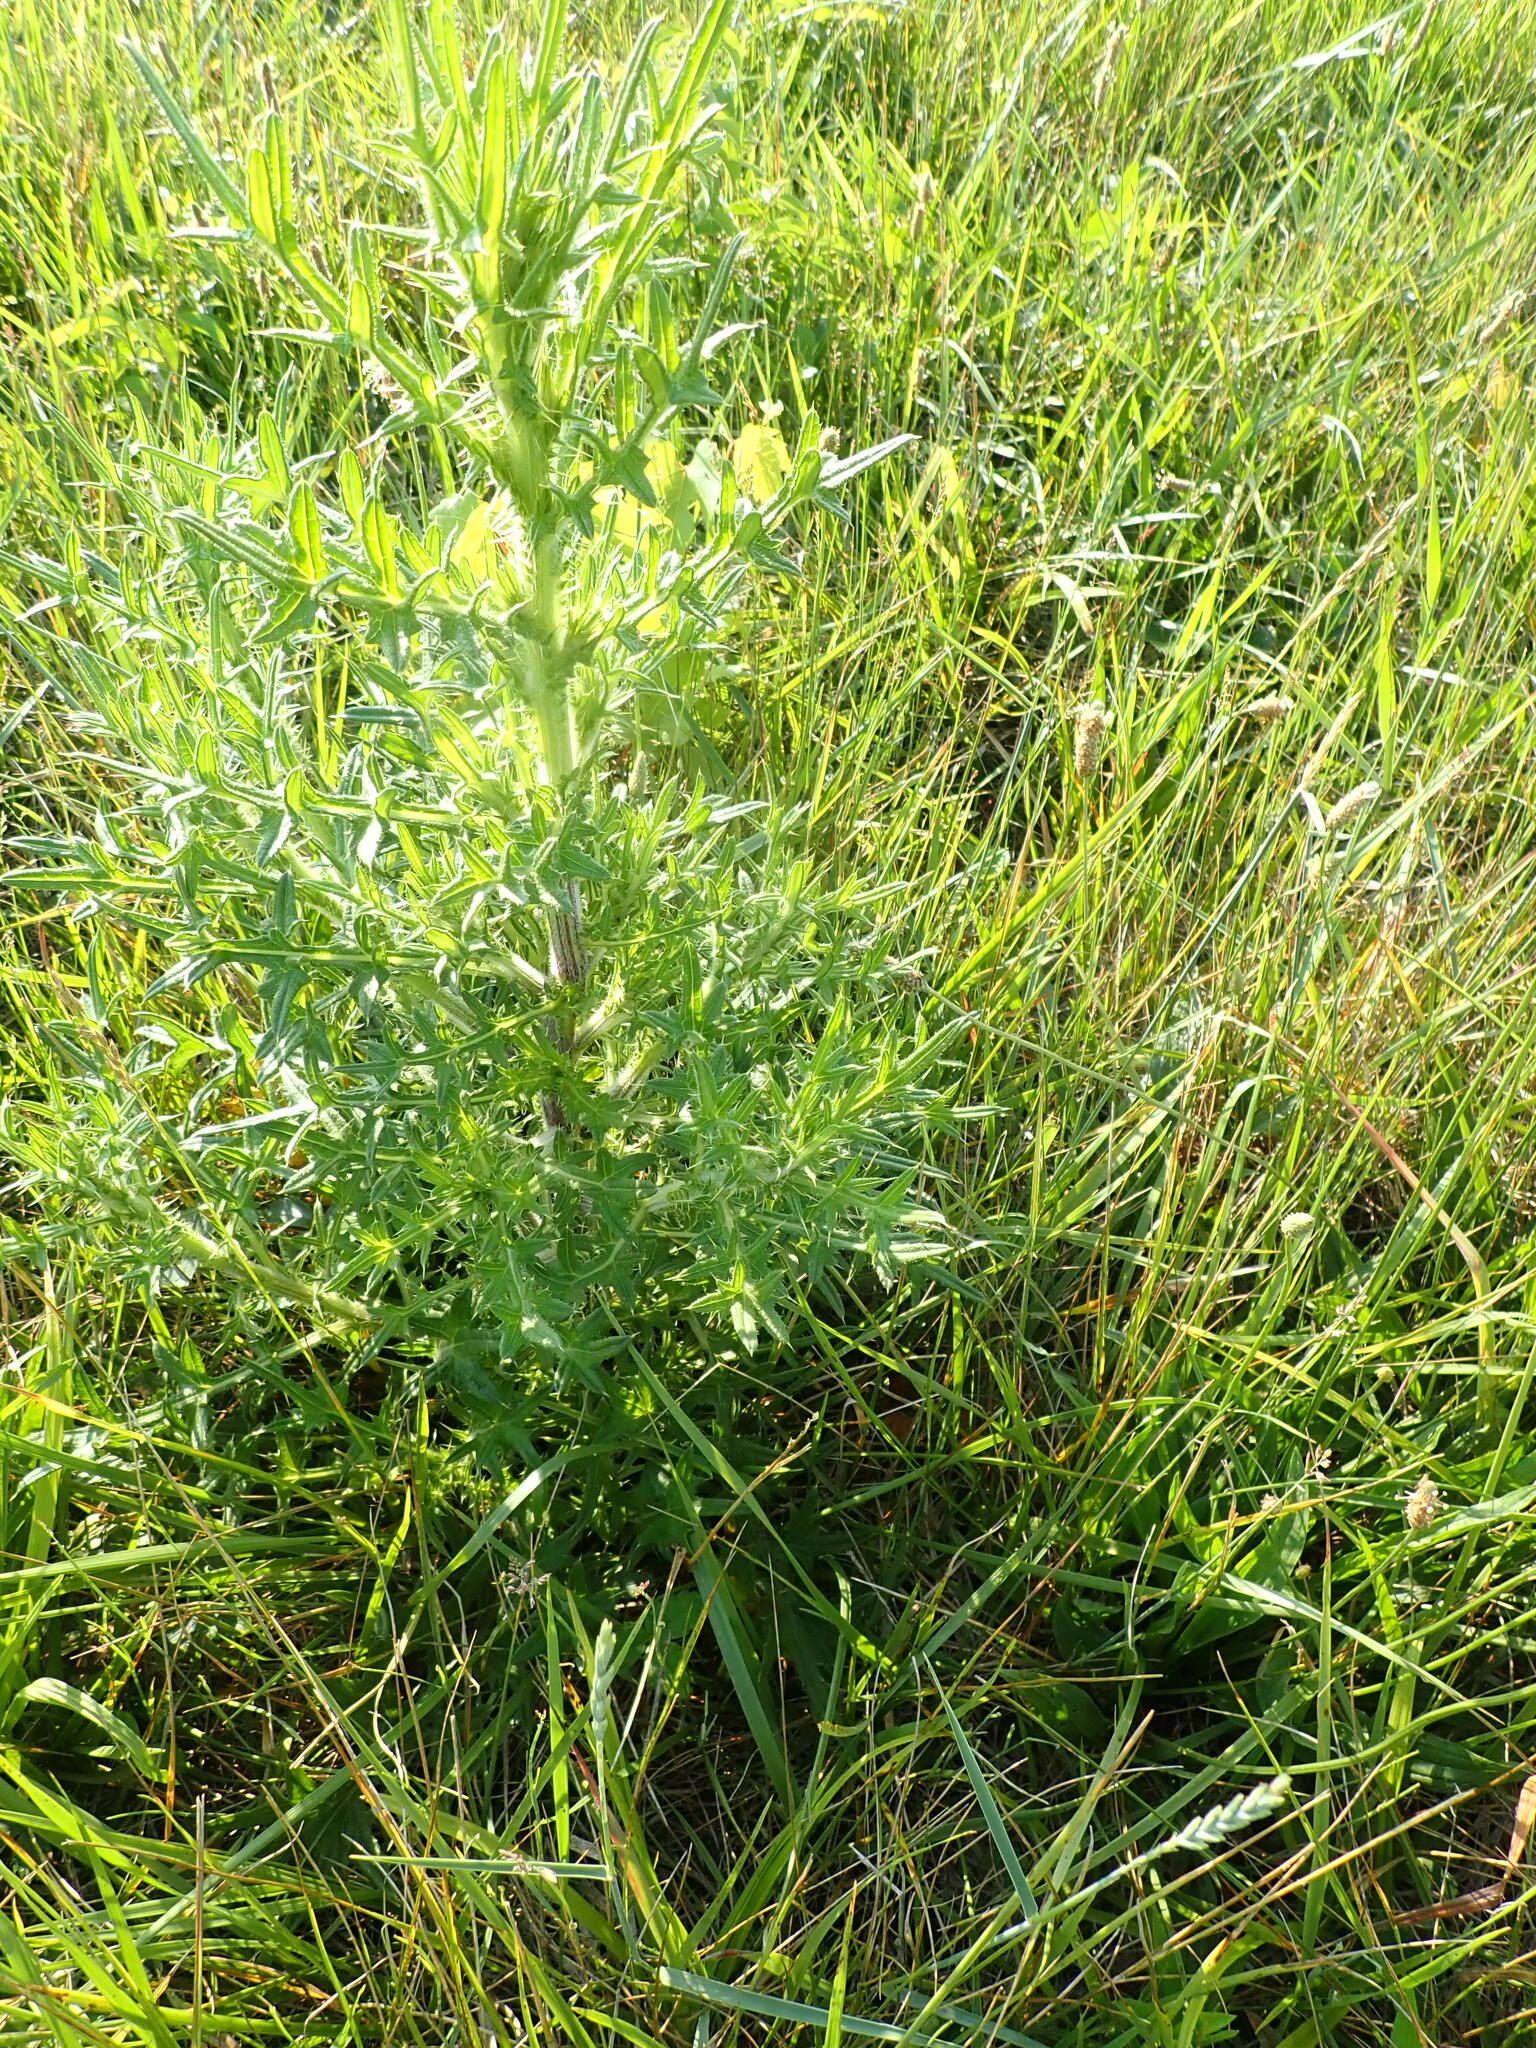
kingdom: Plantae
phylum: Tracheophyta
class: Magnoliopsida
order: Asterales
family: Asteraceae
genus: Cirsium
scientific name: Cirsium vulgare
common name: Bull thistle
